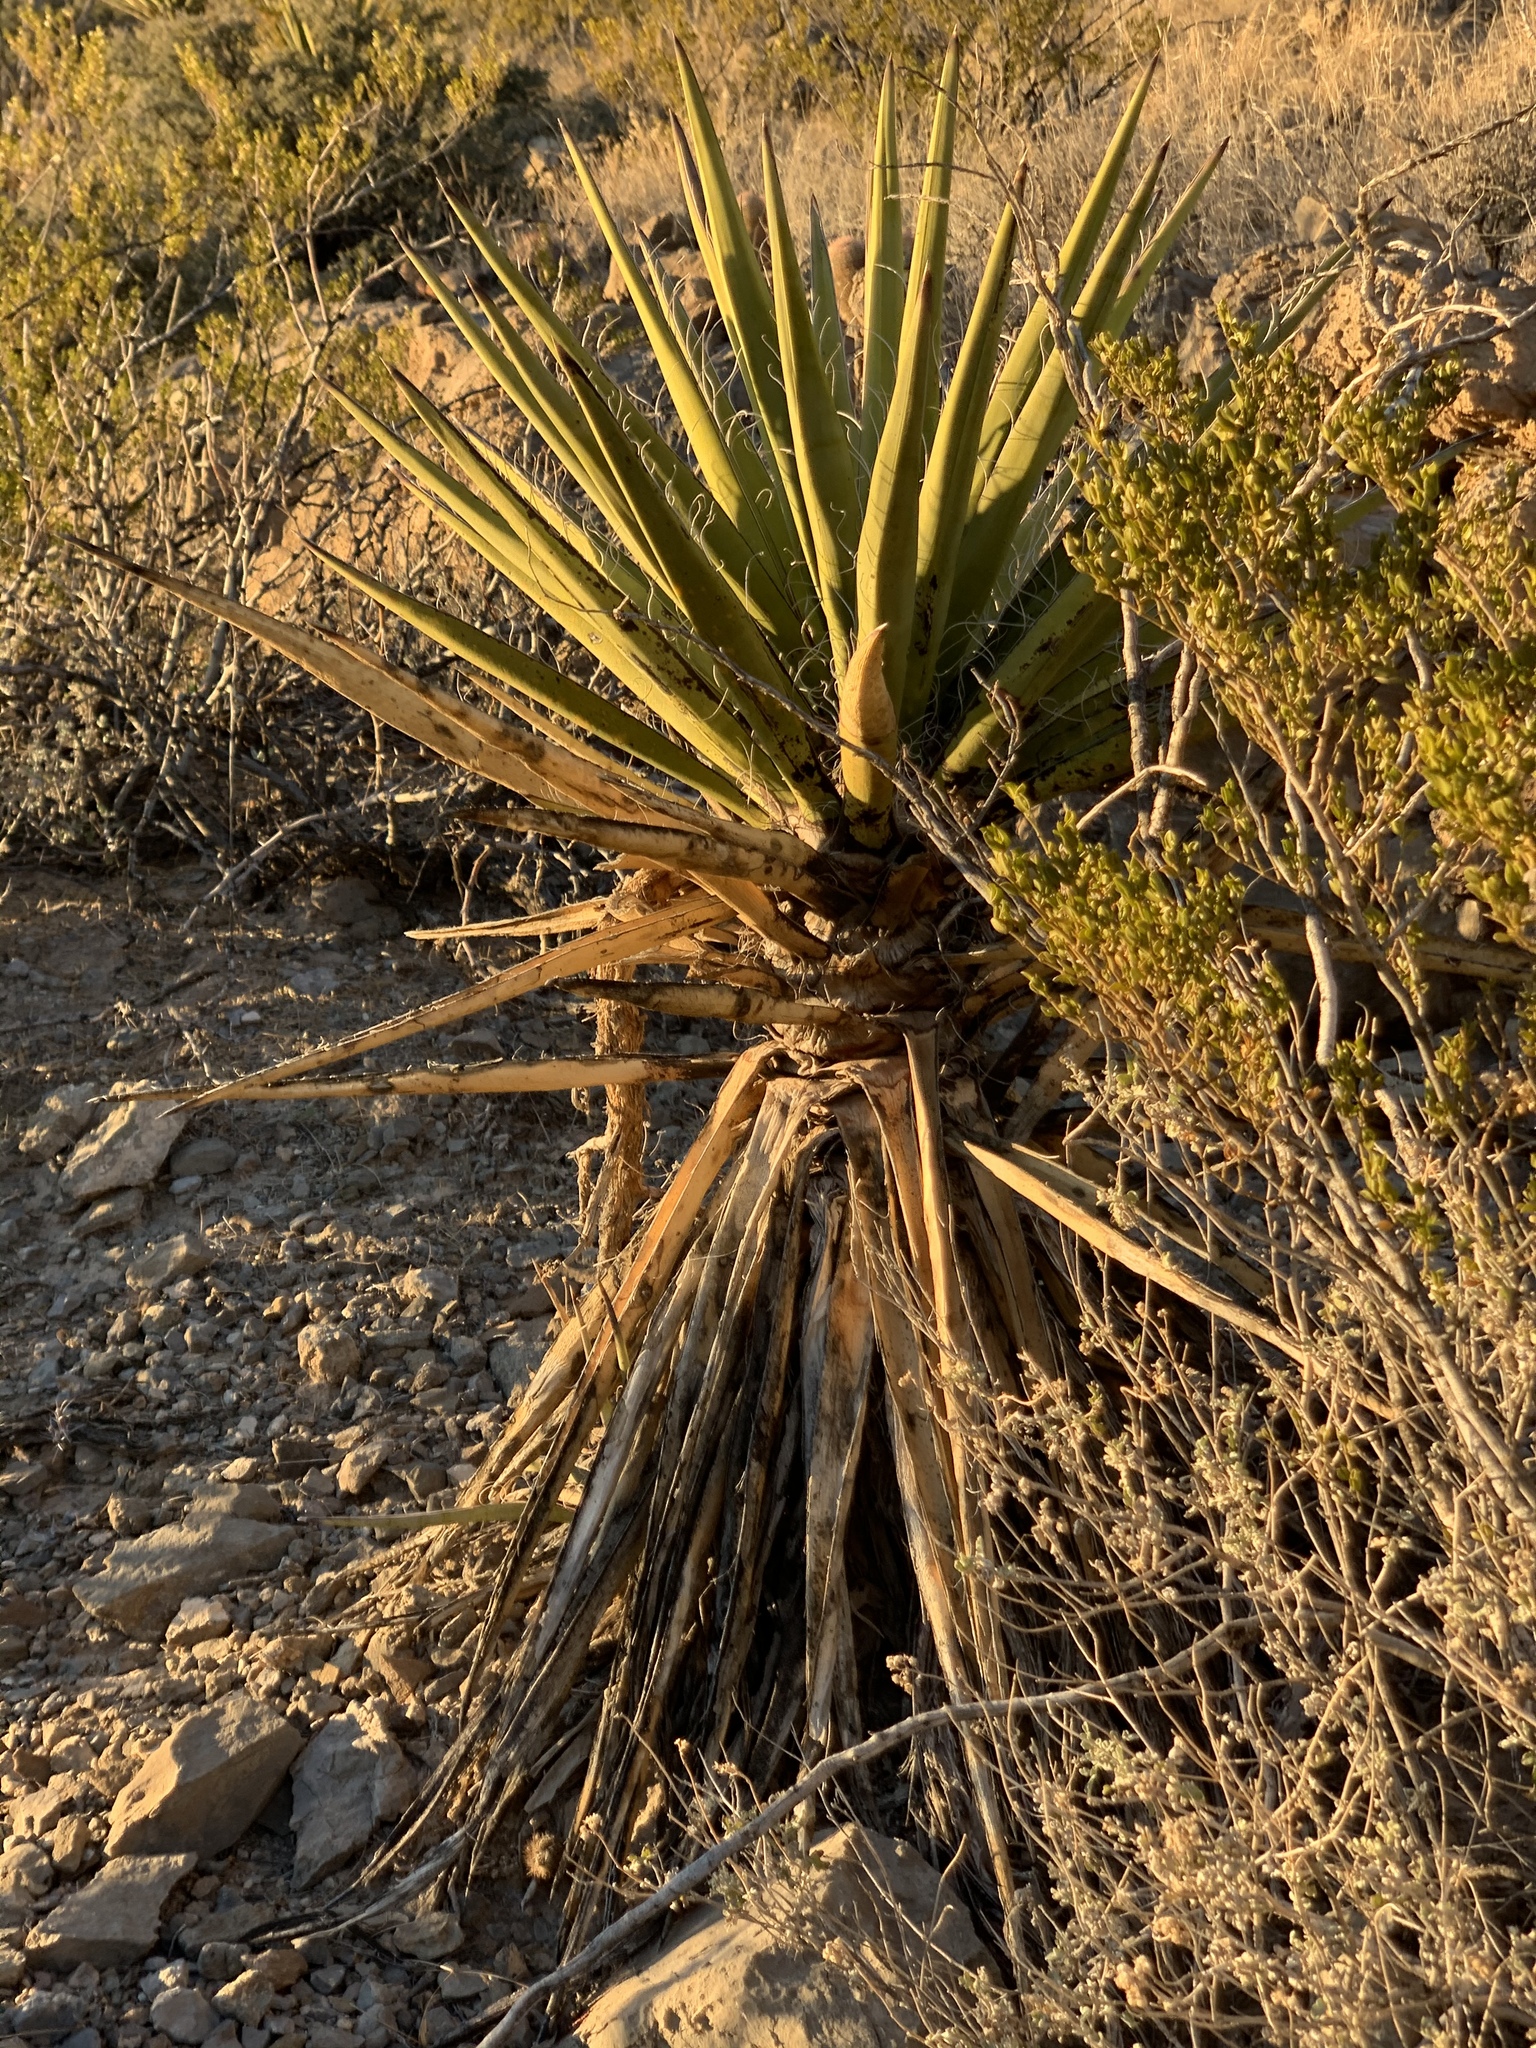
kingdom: Plantae
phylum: Tracheophyta
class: Liliopsida
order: Asparagales
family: Asparagaceae
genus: Yucca
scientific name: Yucca treculiana
